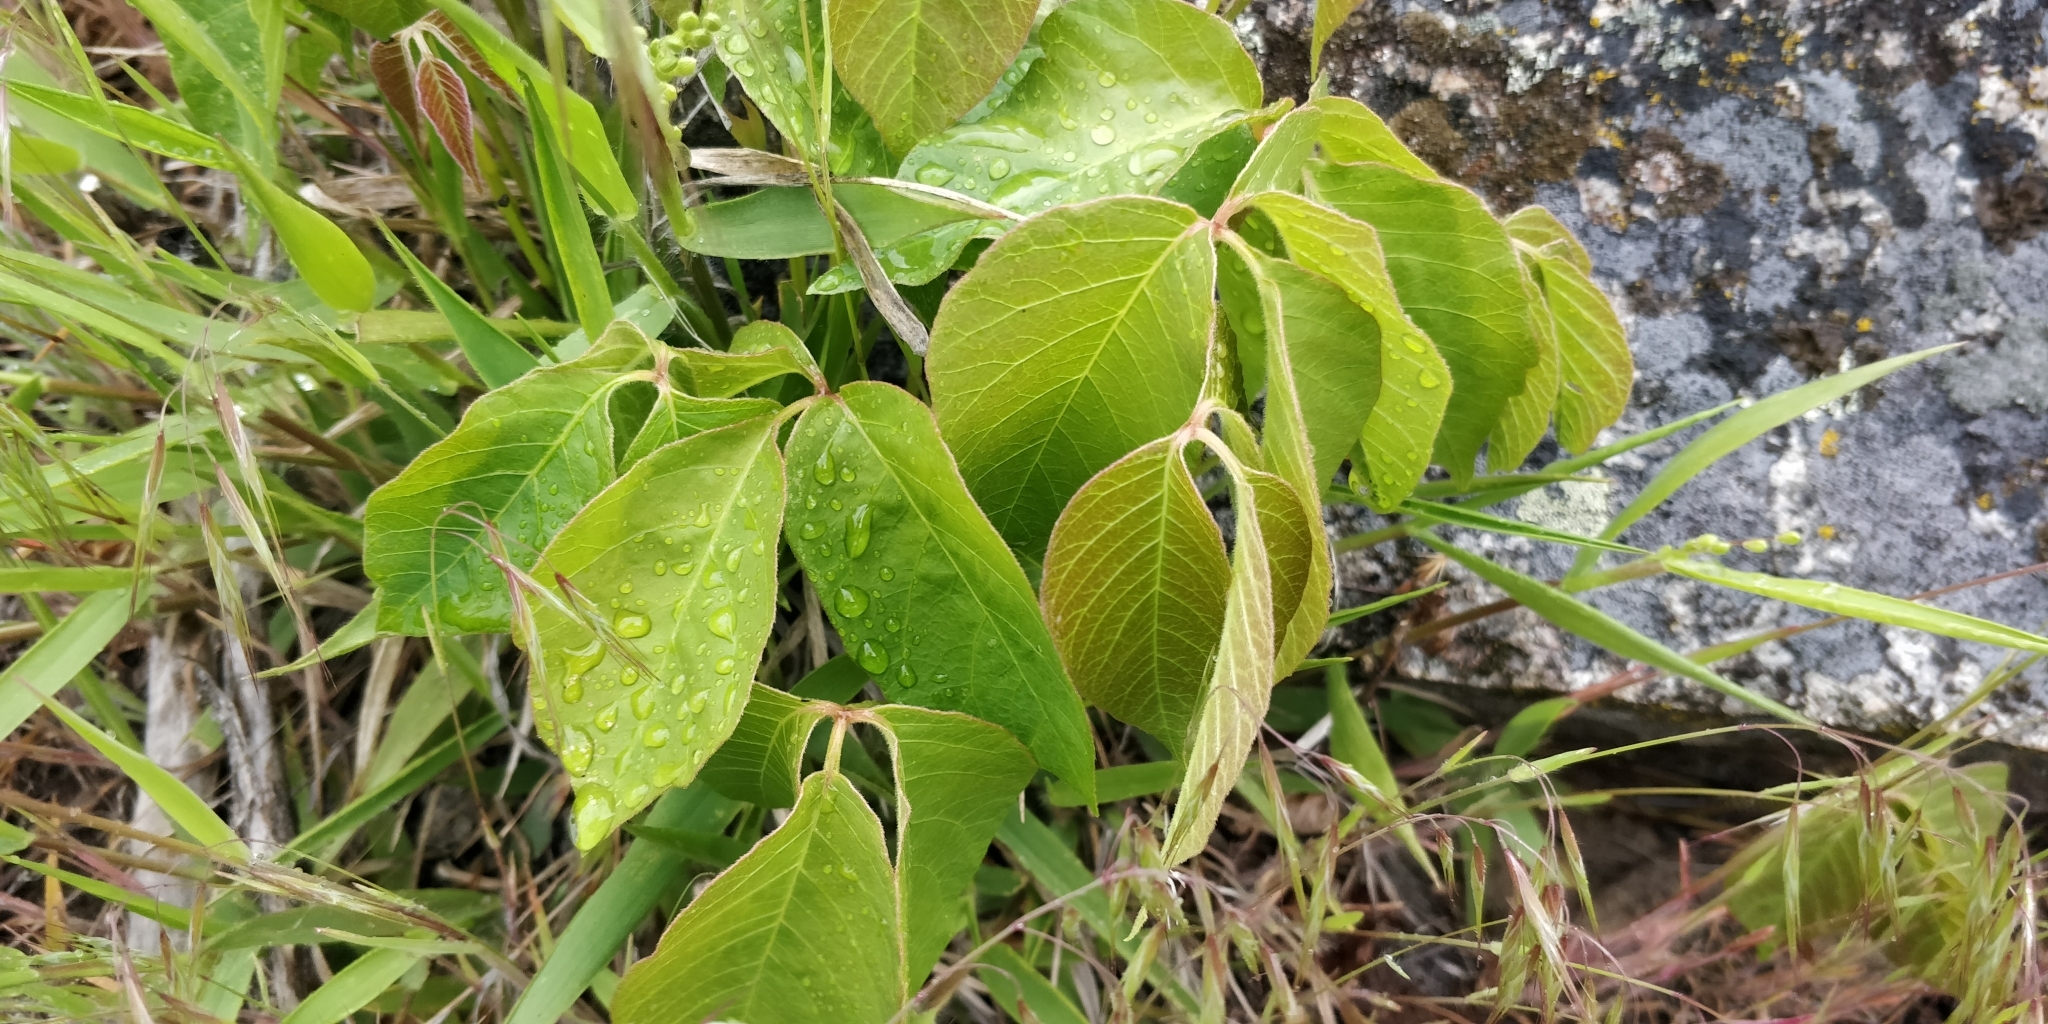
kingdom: Plantae
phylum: Tracheophyta
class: Magnoliopsida
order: Sapindales
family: Anacardiaceae
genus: Toxicodendron
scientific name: Toxicodendron rydbergii
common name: Rydberg's poison-ivy
